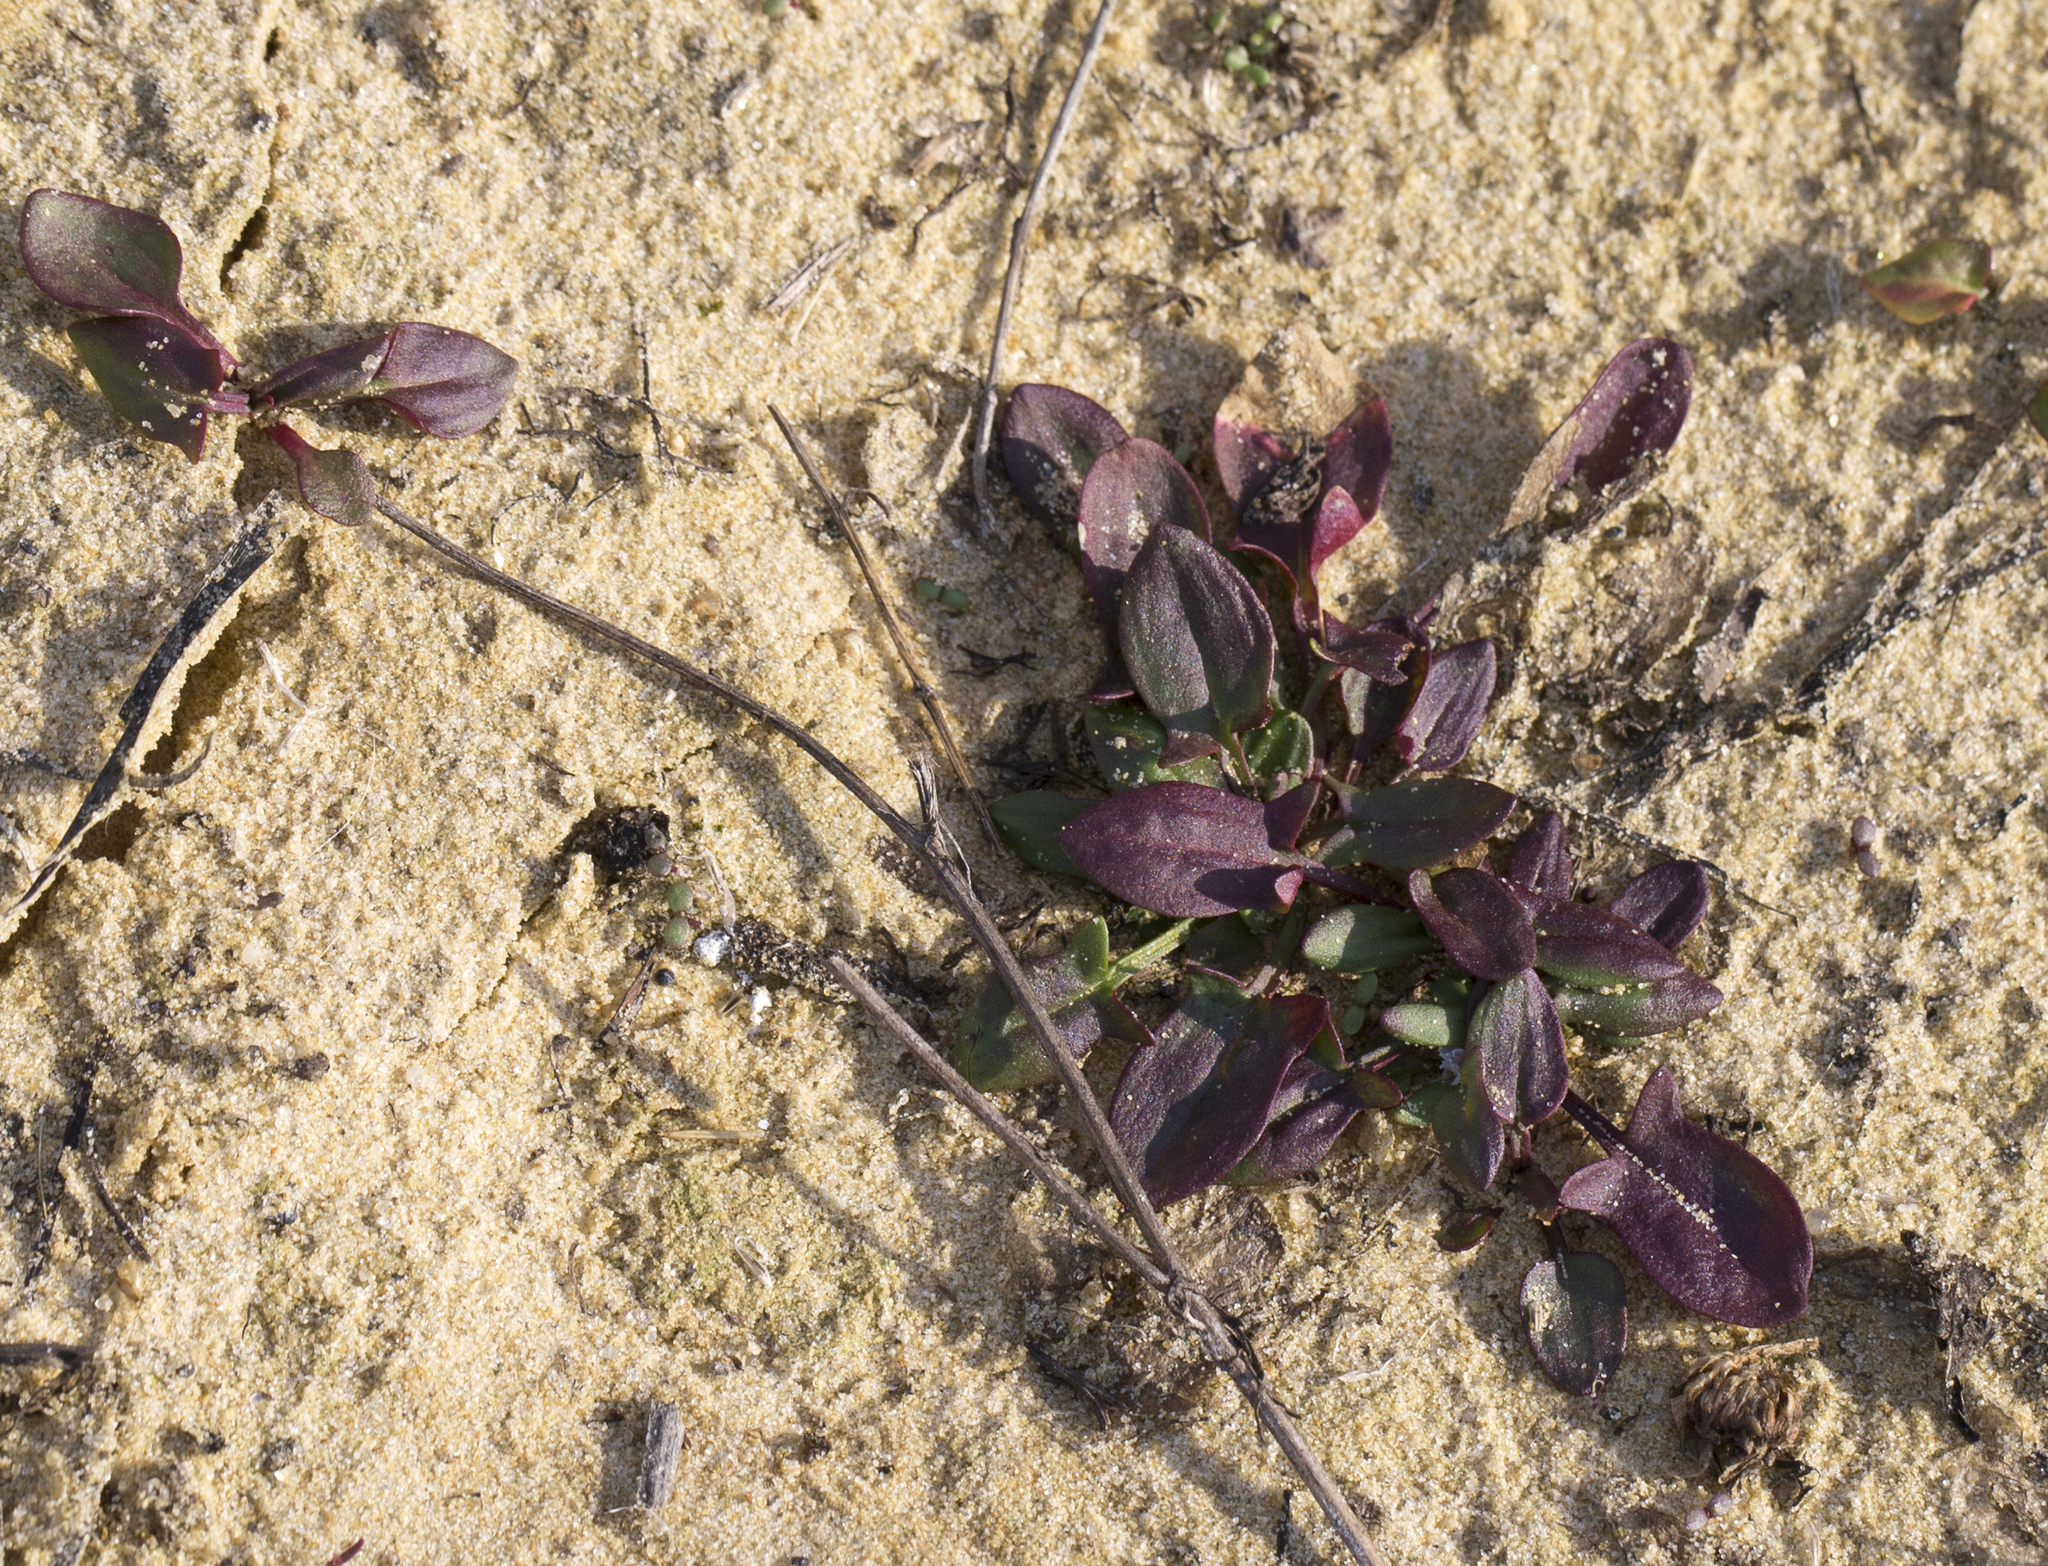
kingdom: Plantae
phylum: Tracheophyta
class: Magnoliopsida
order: Caryophyllales
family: Polygonaceae
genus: Rumex
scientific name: Rumex acetosella
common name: Common sheep sorrel
